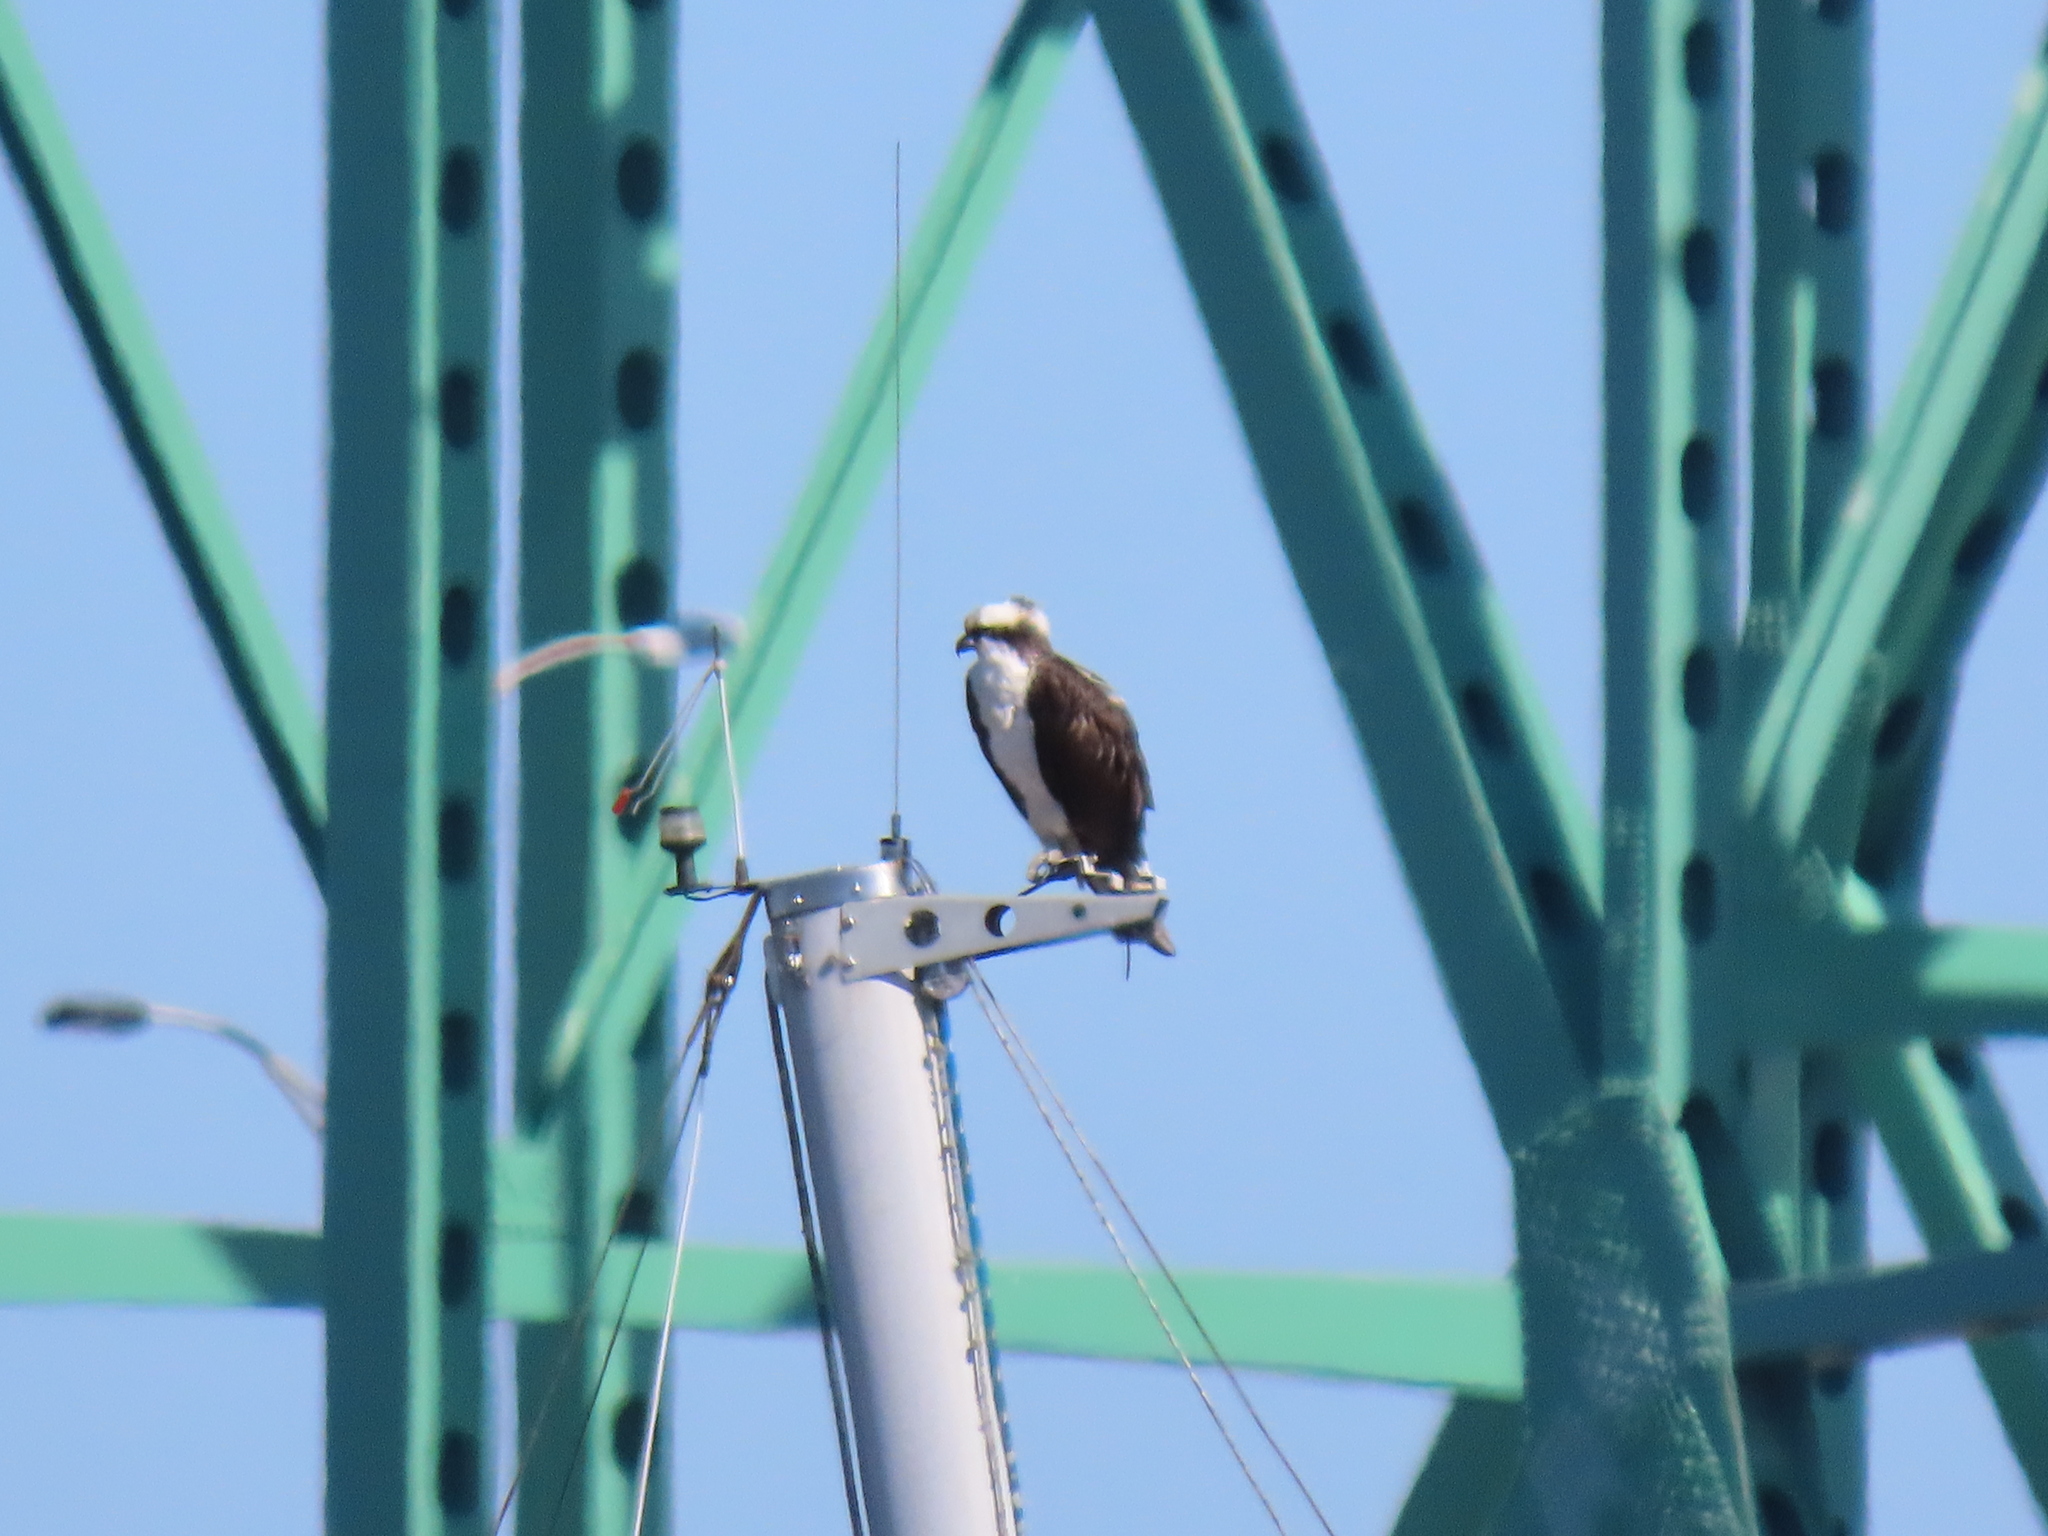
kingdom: Animalia
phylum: Chordata
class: Aves
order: Accipitriformes
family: Pandionidae
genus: Pandion
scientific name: Pandion haliaetus
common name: Osprey
